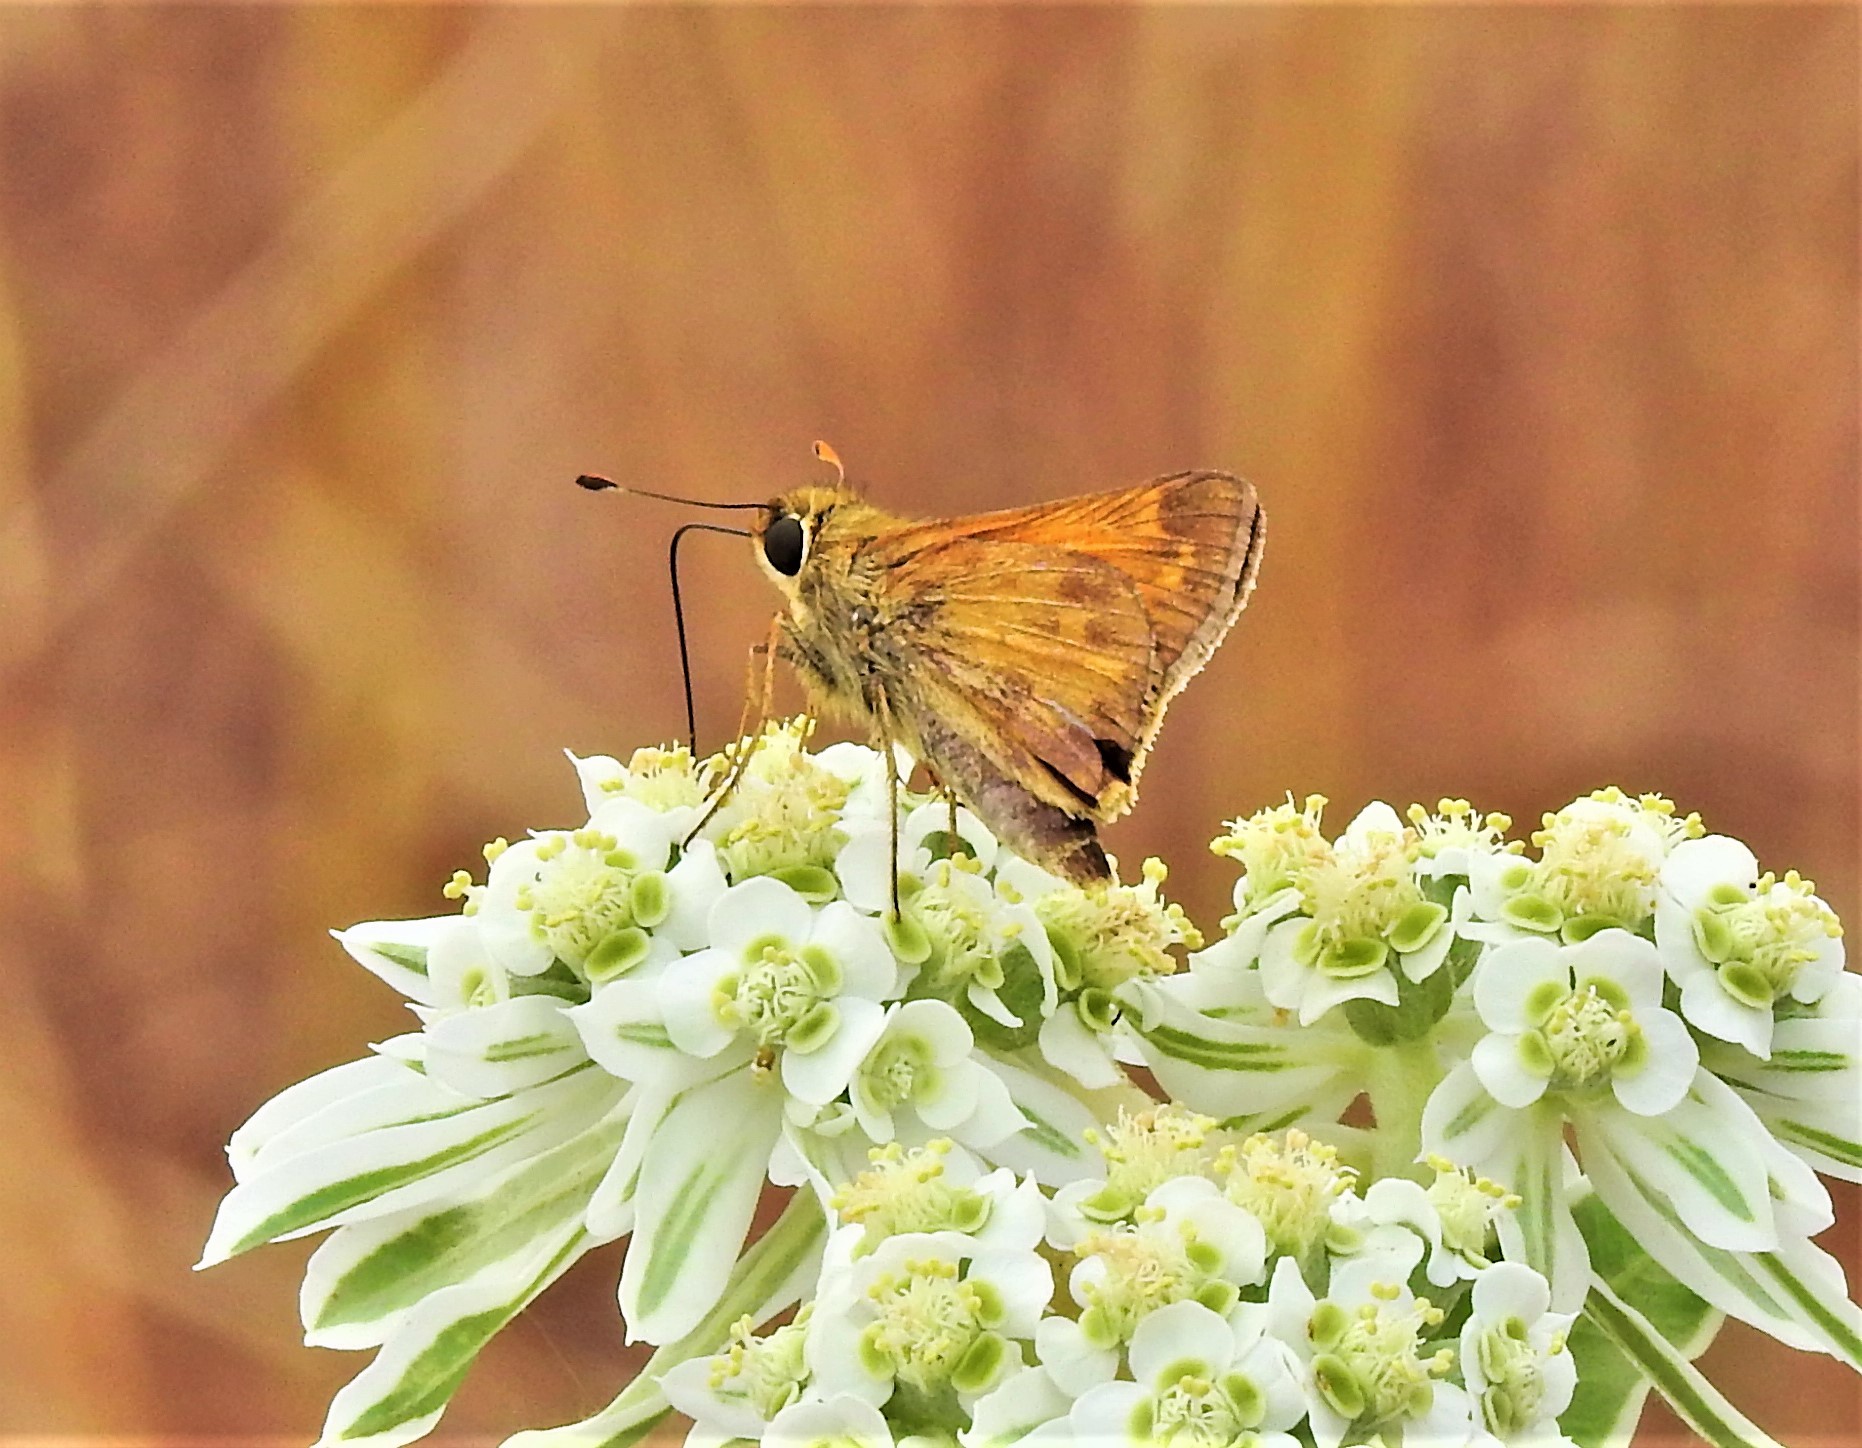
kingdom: Animalia
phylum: Arthropoda
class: Insecta
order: Lepidoptera
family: Hesperiidae
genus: Atalopedes
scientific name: Atalopedes
